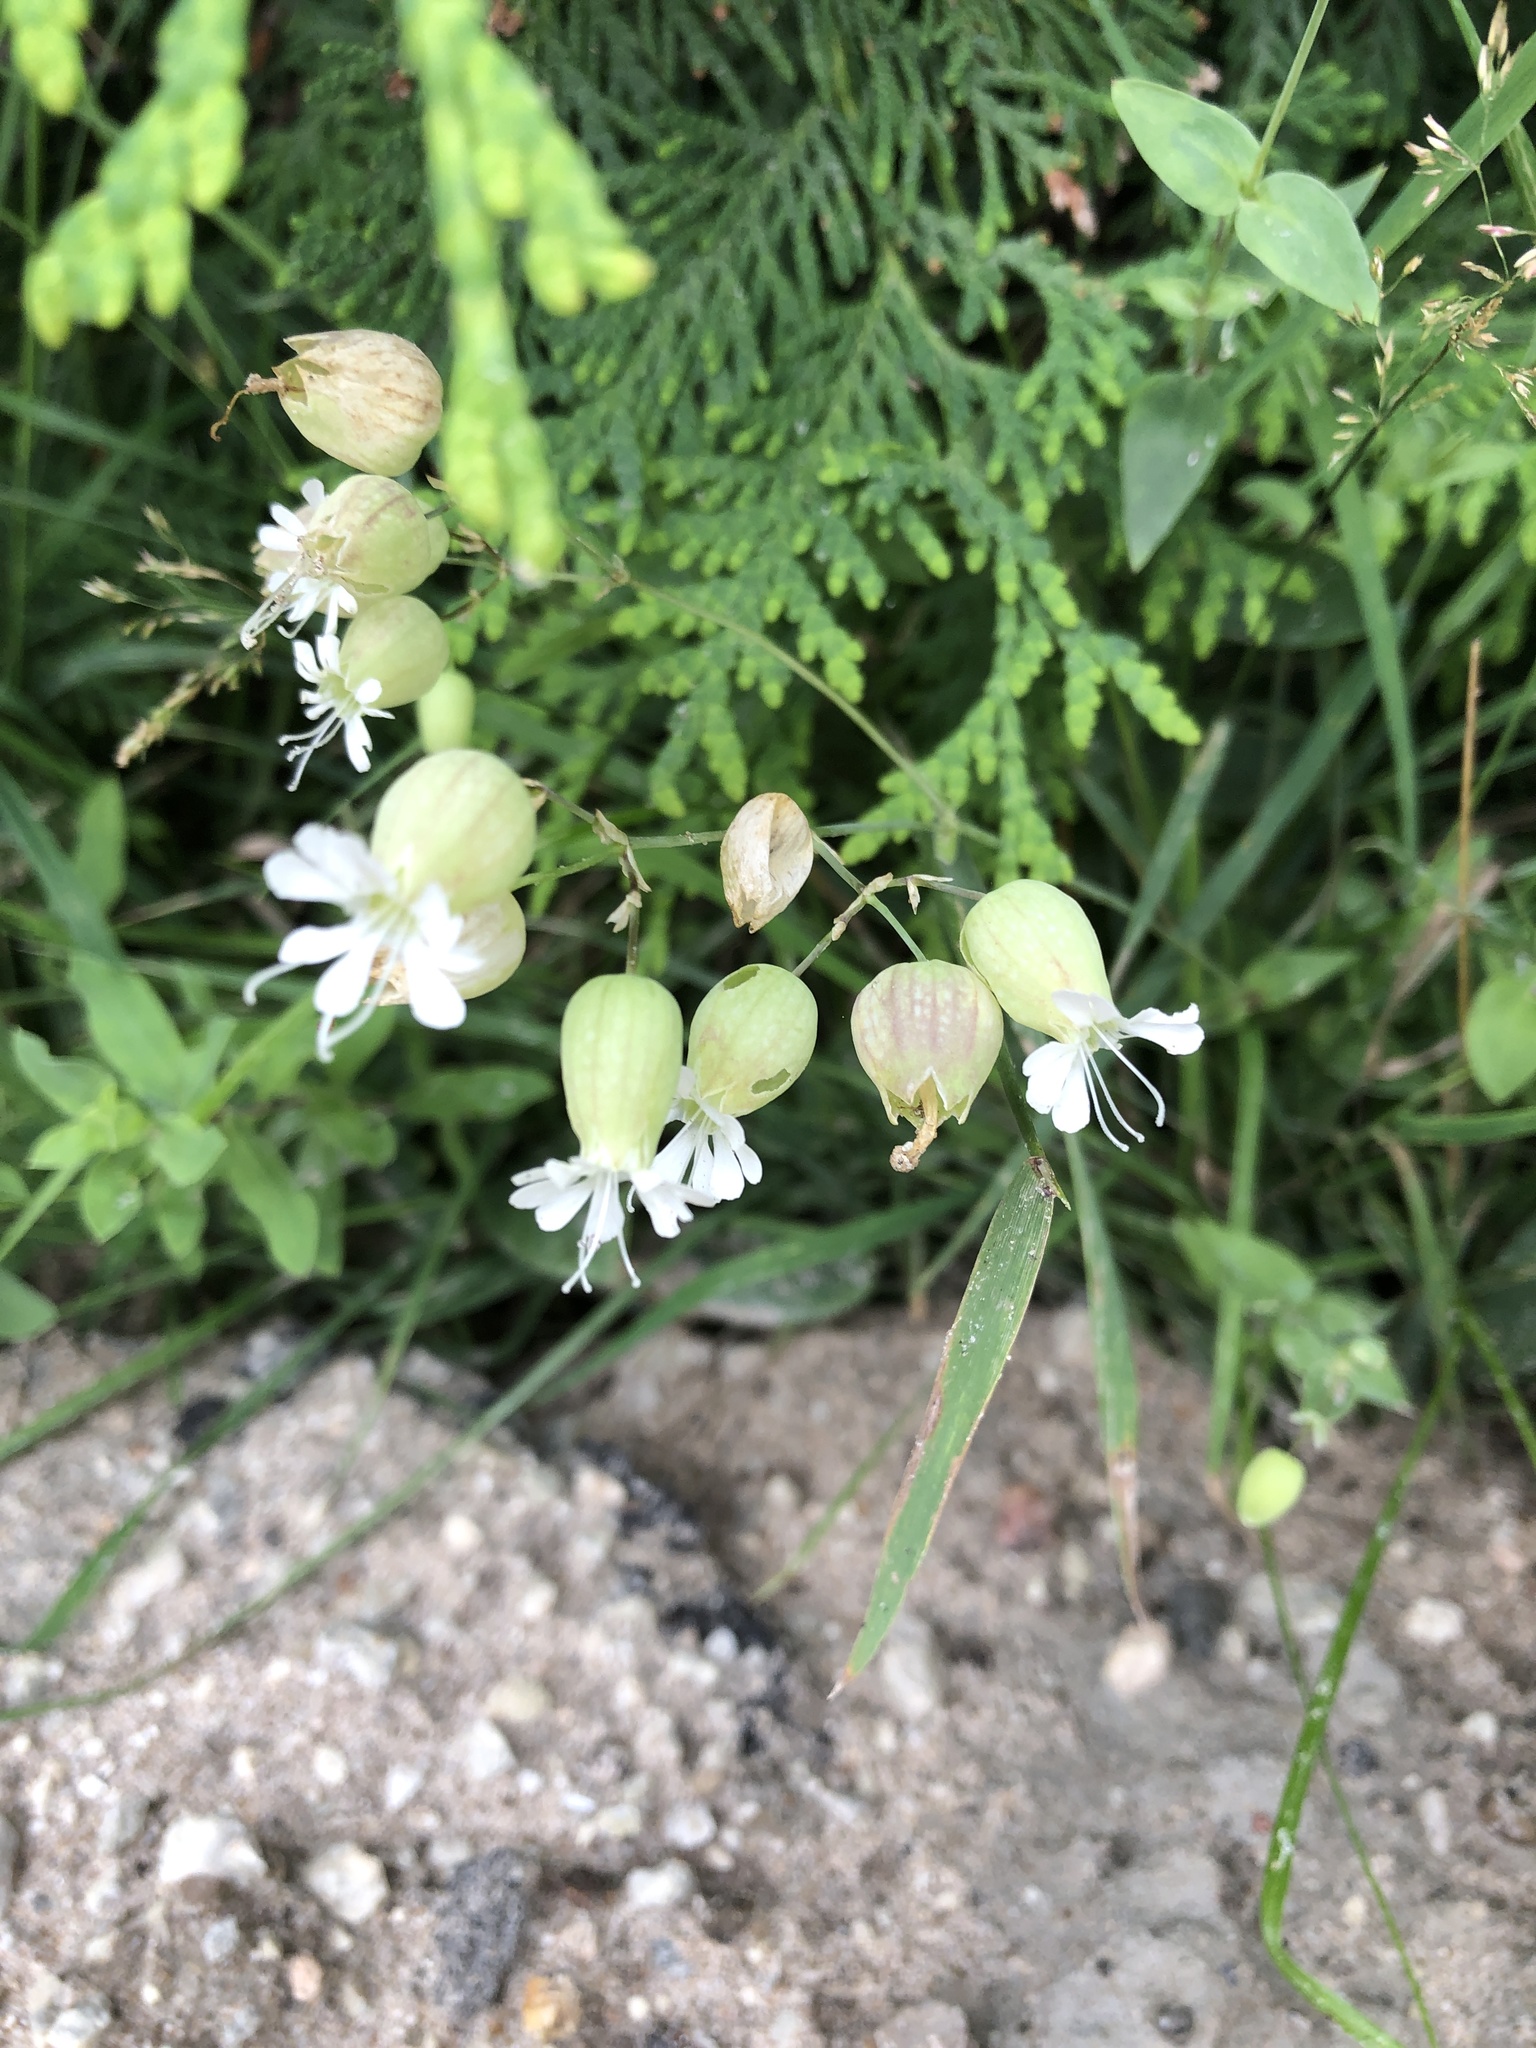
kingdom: Plantae
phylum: Tracheophyta
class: Magnoliopsida
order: Caryophyllales
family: Caryophyllaceae
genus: Silene
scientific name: Silene vulgaris
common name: Bladder campion
